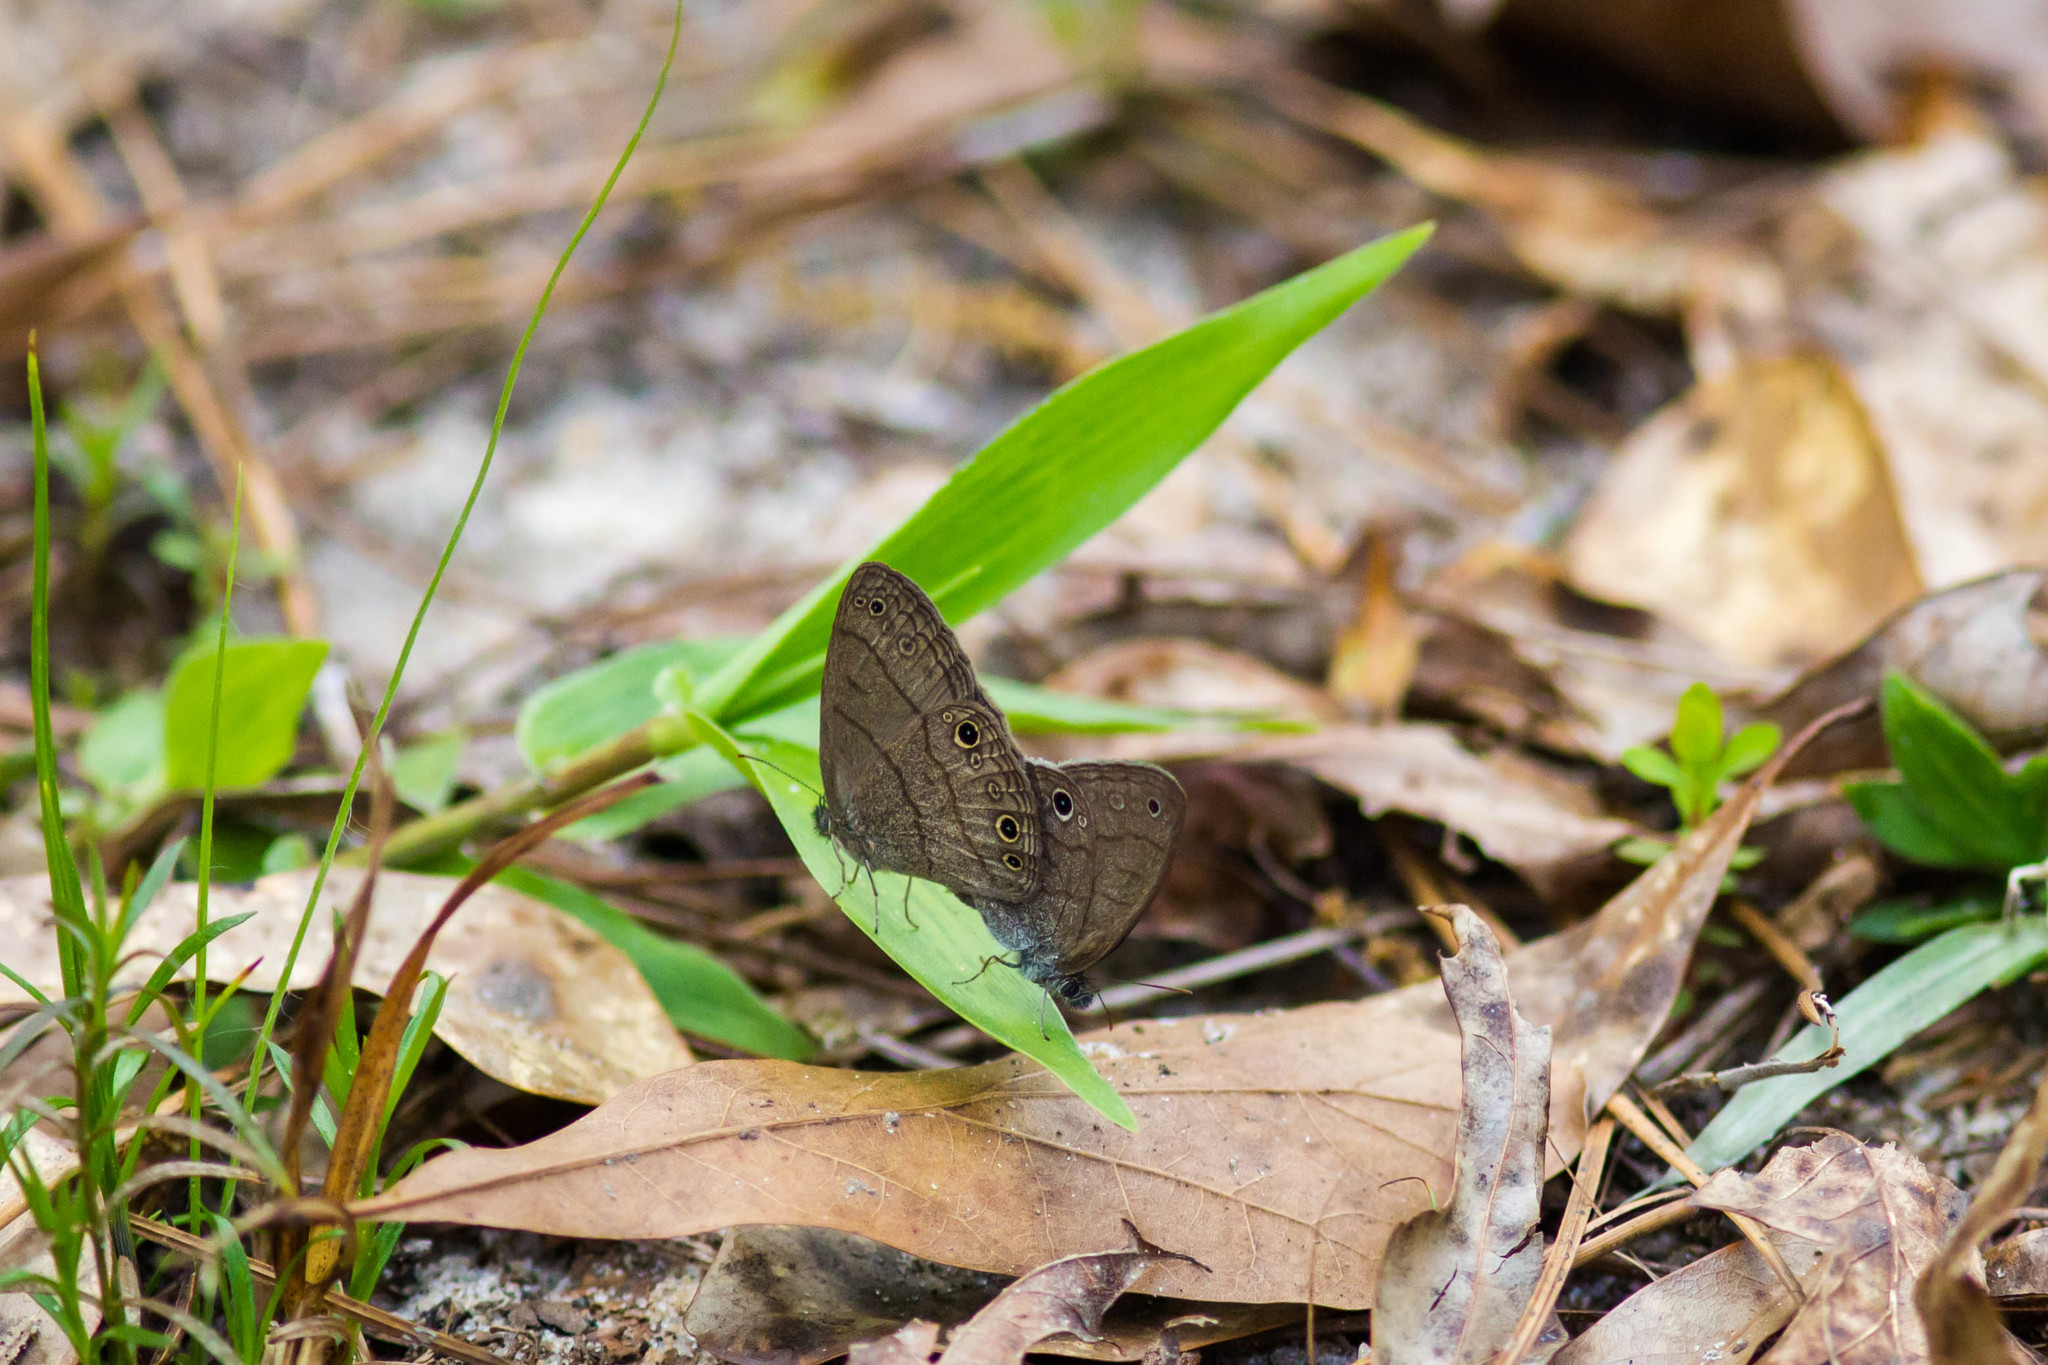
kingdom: Animalia
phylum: Arthropoda
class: Insecta
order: Lepidoptera
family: Nymphalidae
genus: Hermeuptychia
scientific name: Hermeuptychia hermes
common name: Hermes satyr
